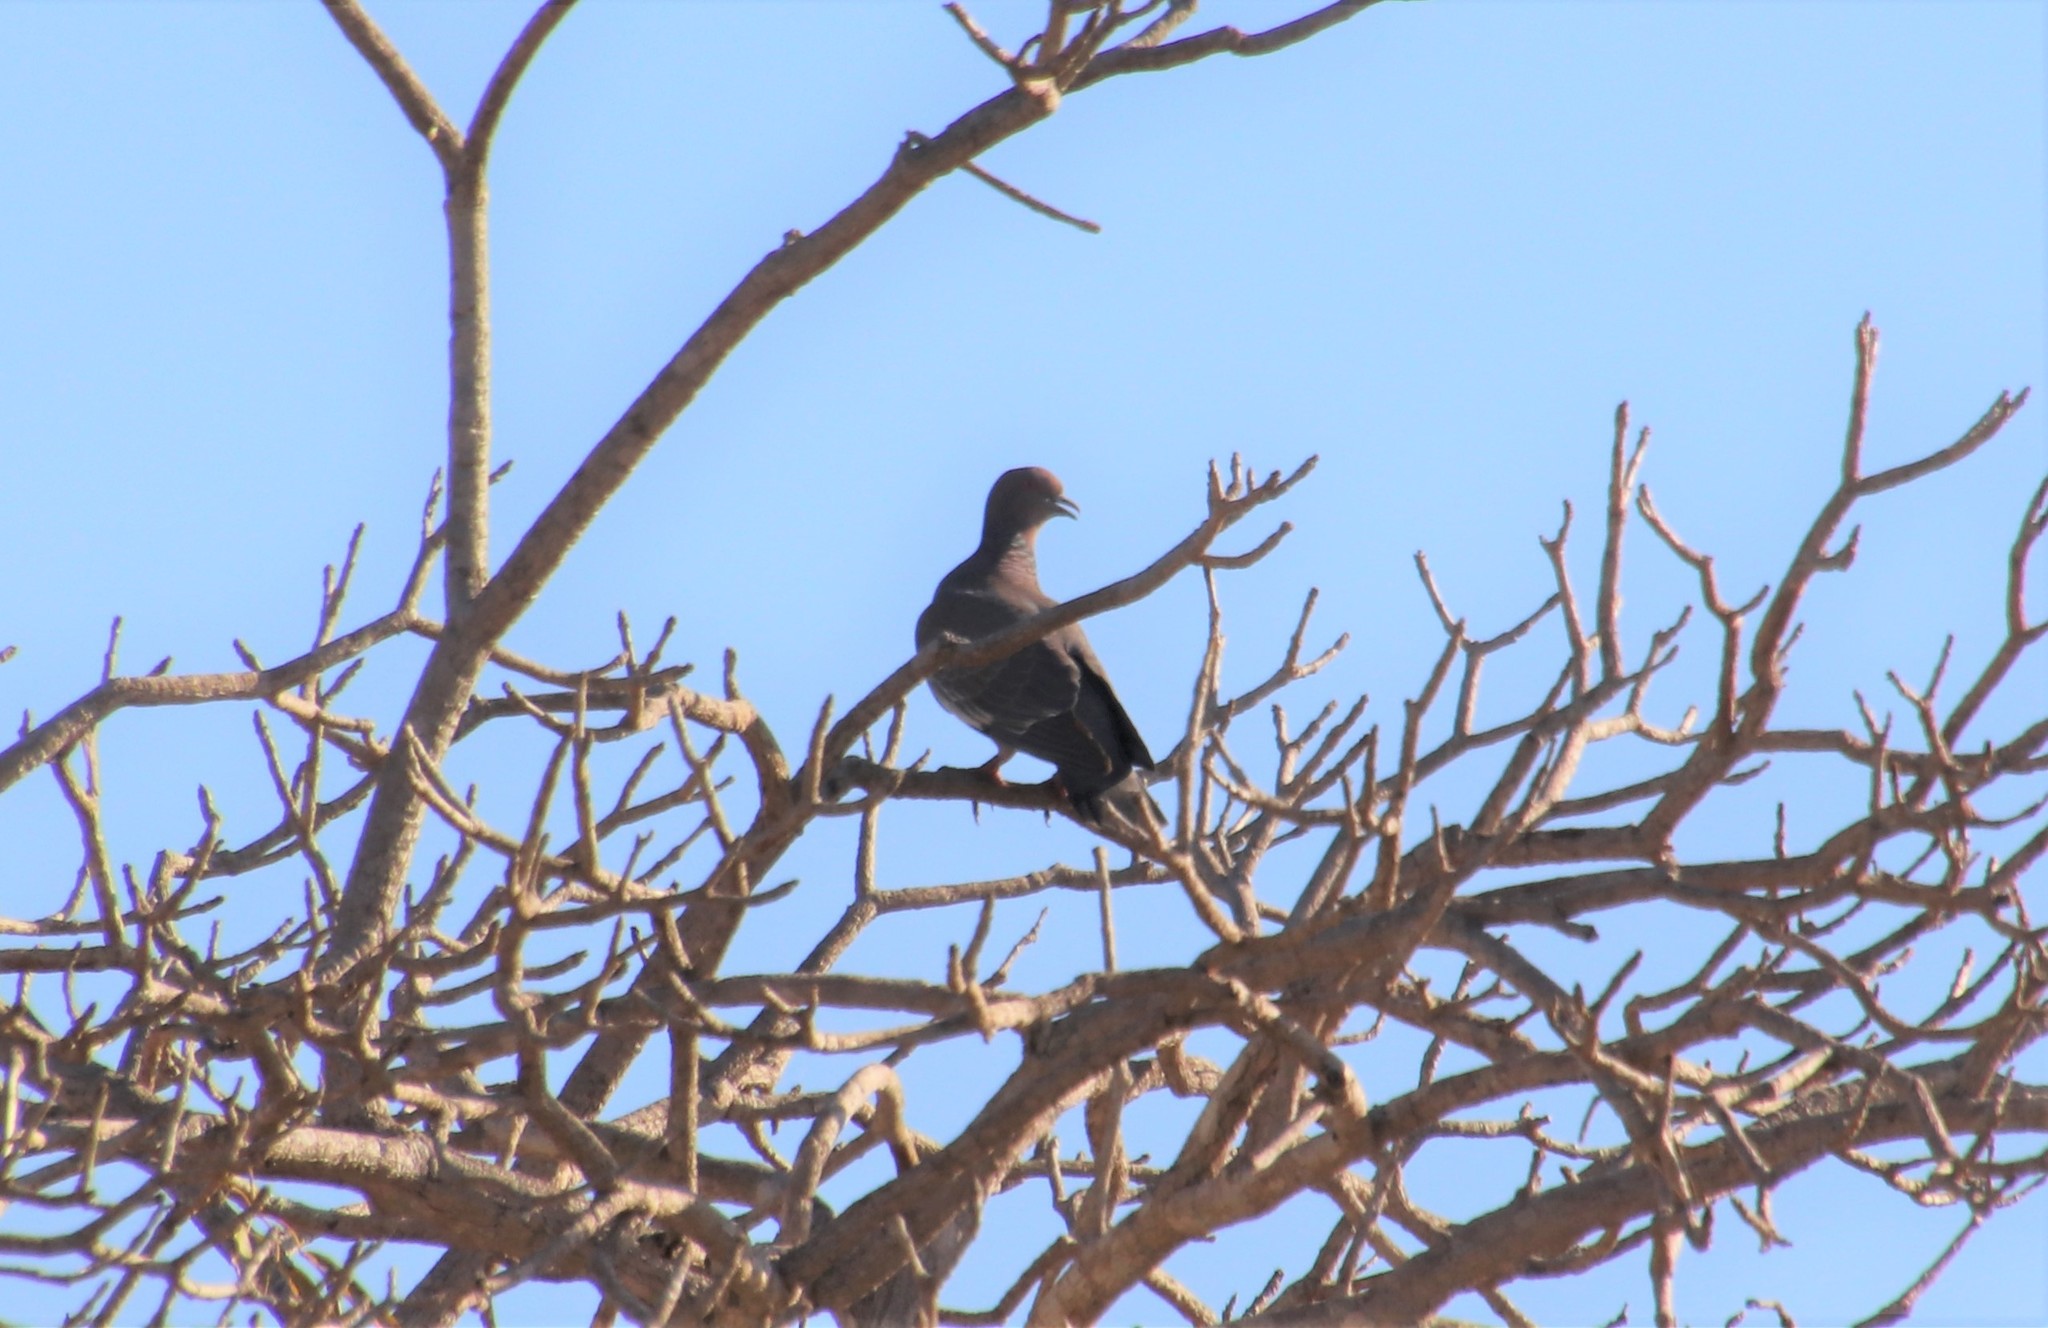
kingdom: Animalia
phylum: Chordata
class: Aves
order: Columbiformes
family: Columbidae
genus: Patagioenas
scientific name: Patagioenas picazuro
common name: Picazuro pigeon
